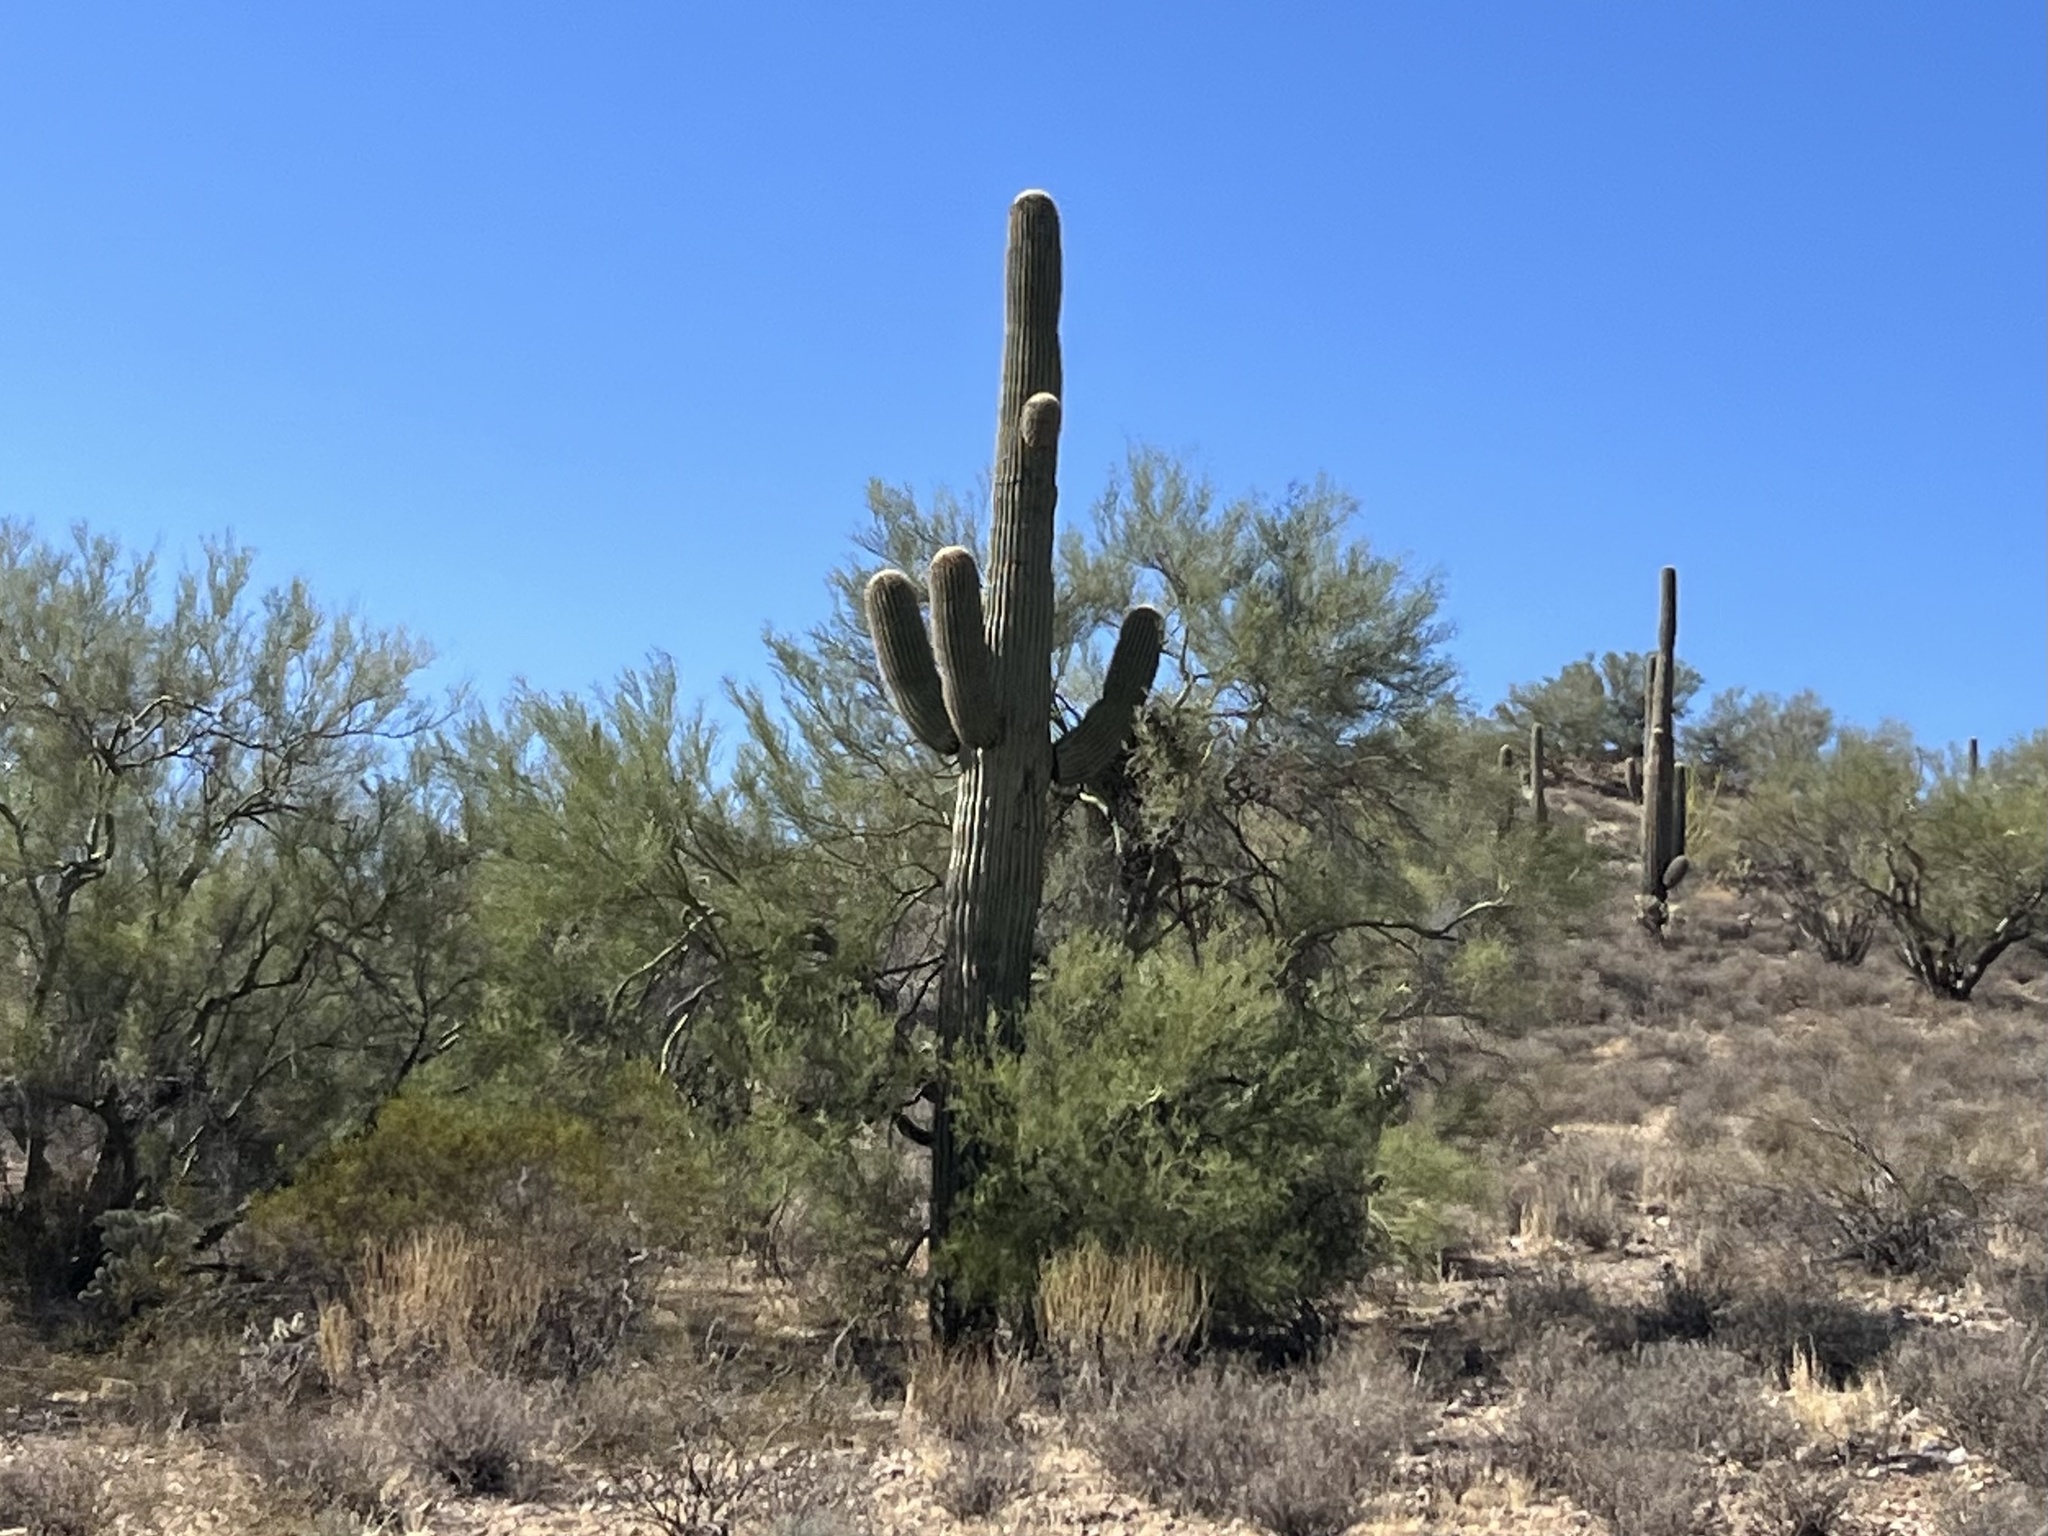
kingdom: Plantae
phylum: Tracheophyta
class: Magnoliopsida
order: Caryophyllales
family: Cactaceae
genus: Carnegiea
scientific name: Carnegiea gigantea
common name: Saguaro
